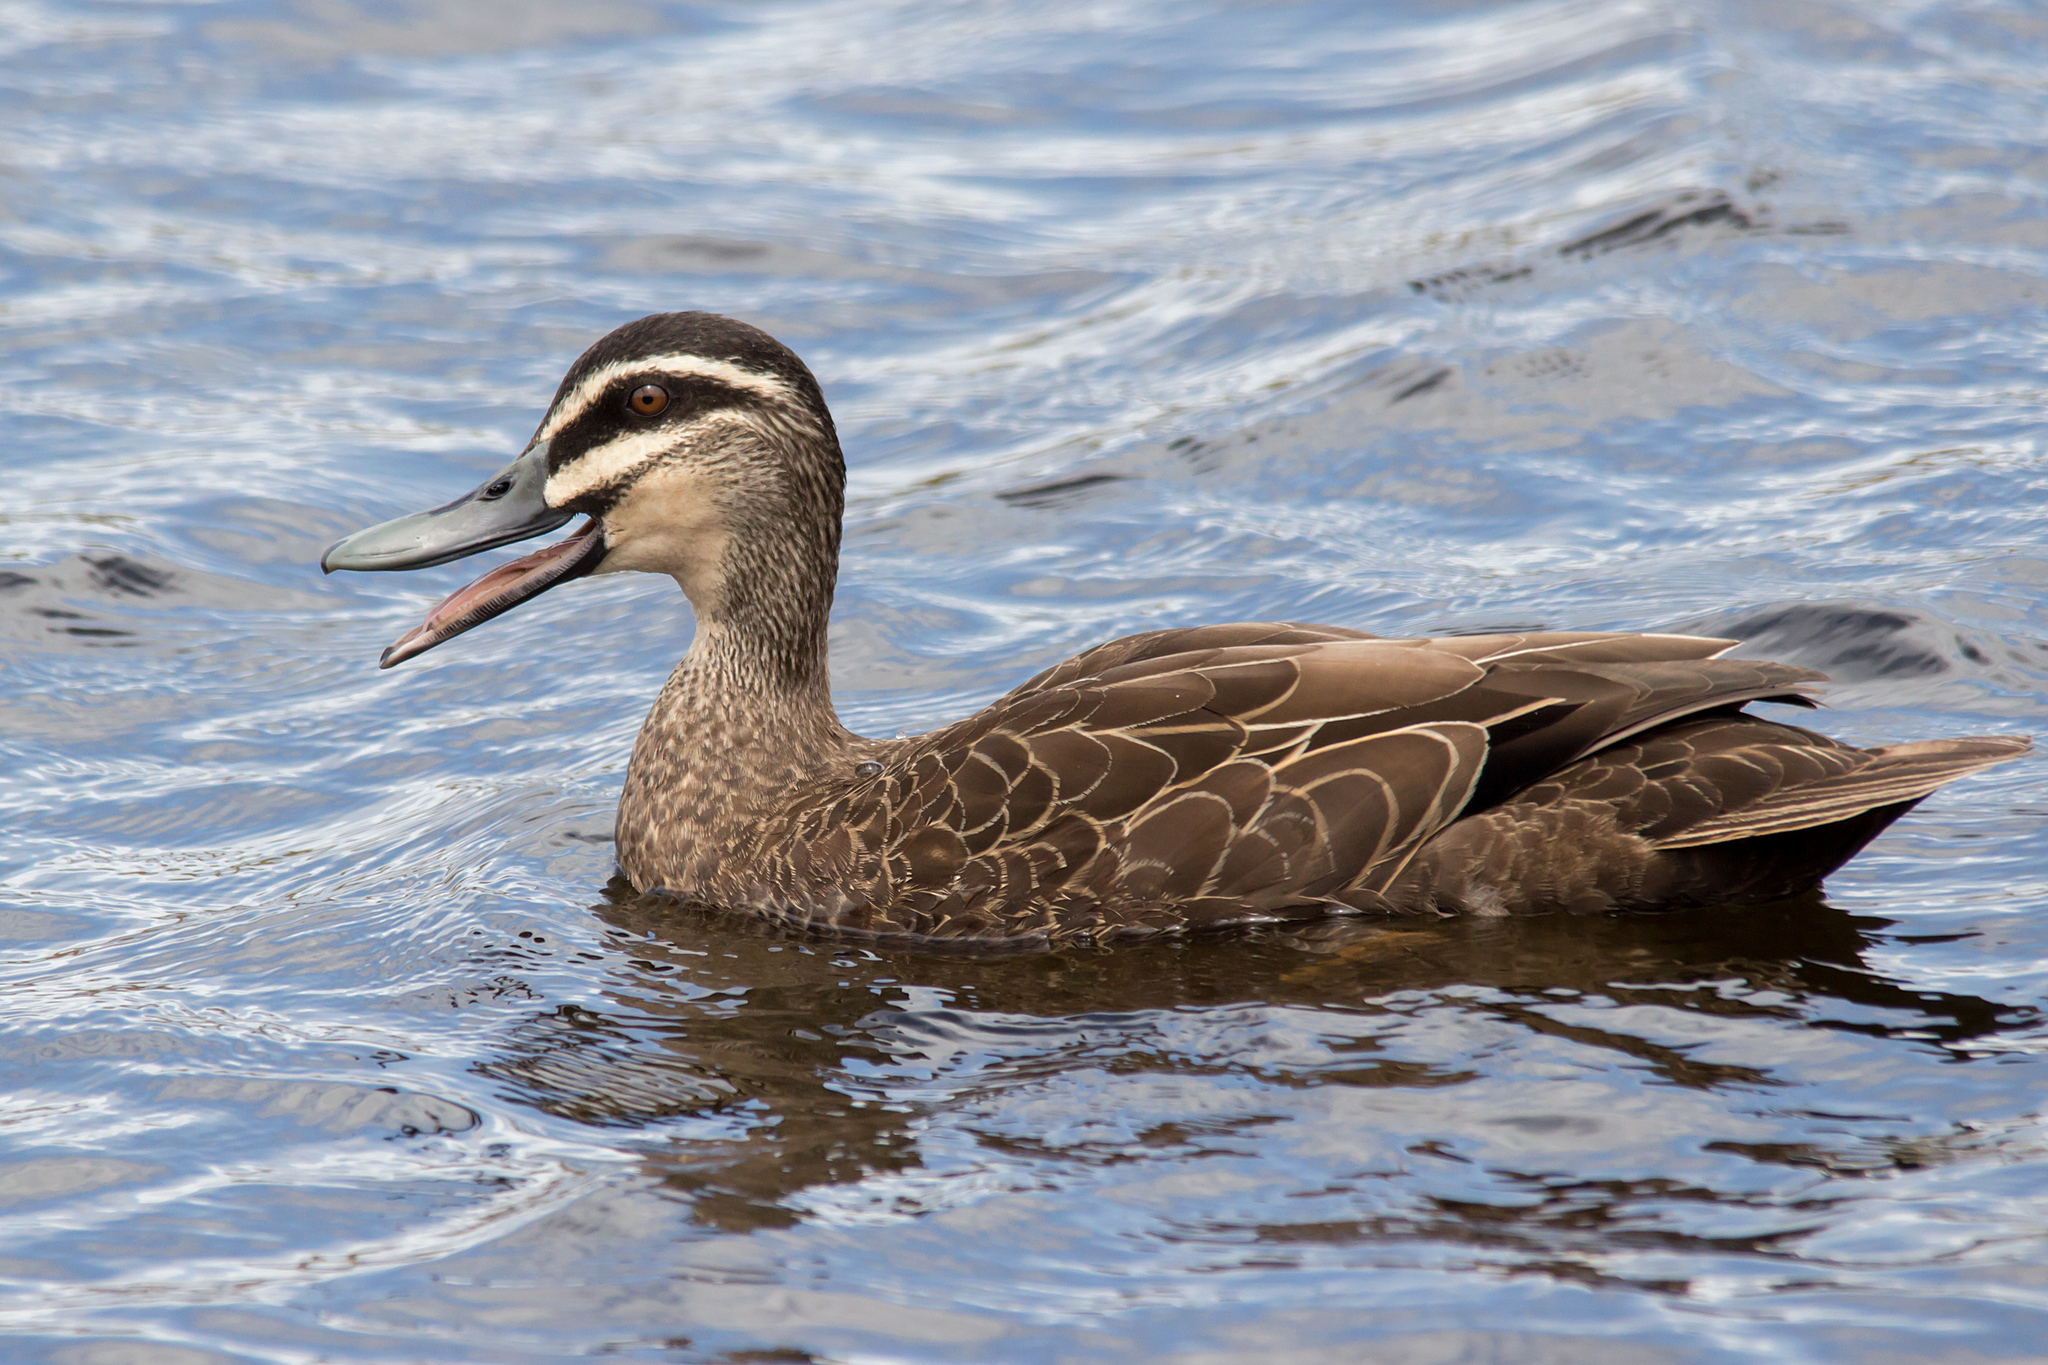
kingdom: Animalia
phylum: Chordata
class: Aves
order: Anseriformes
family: Anatidae
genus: Anas
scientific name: Anas superciliosa
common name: Pacific black duck
